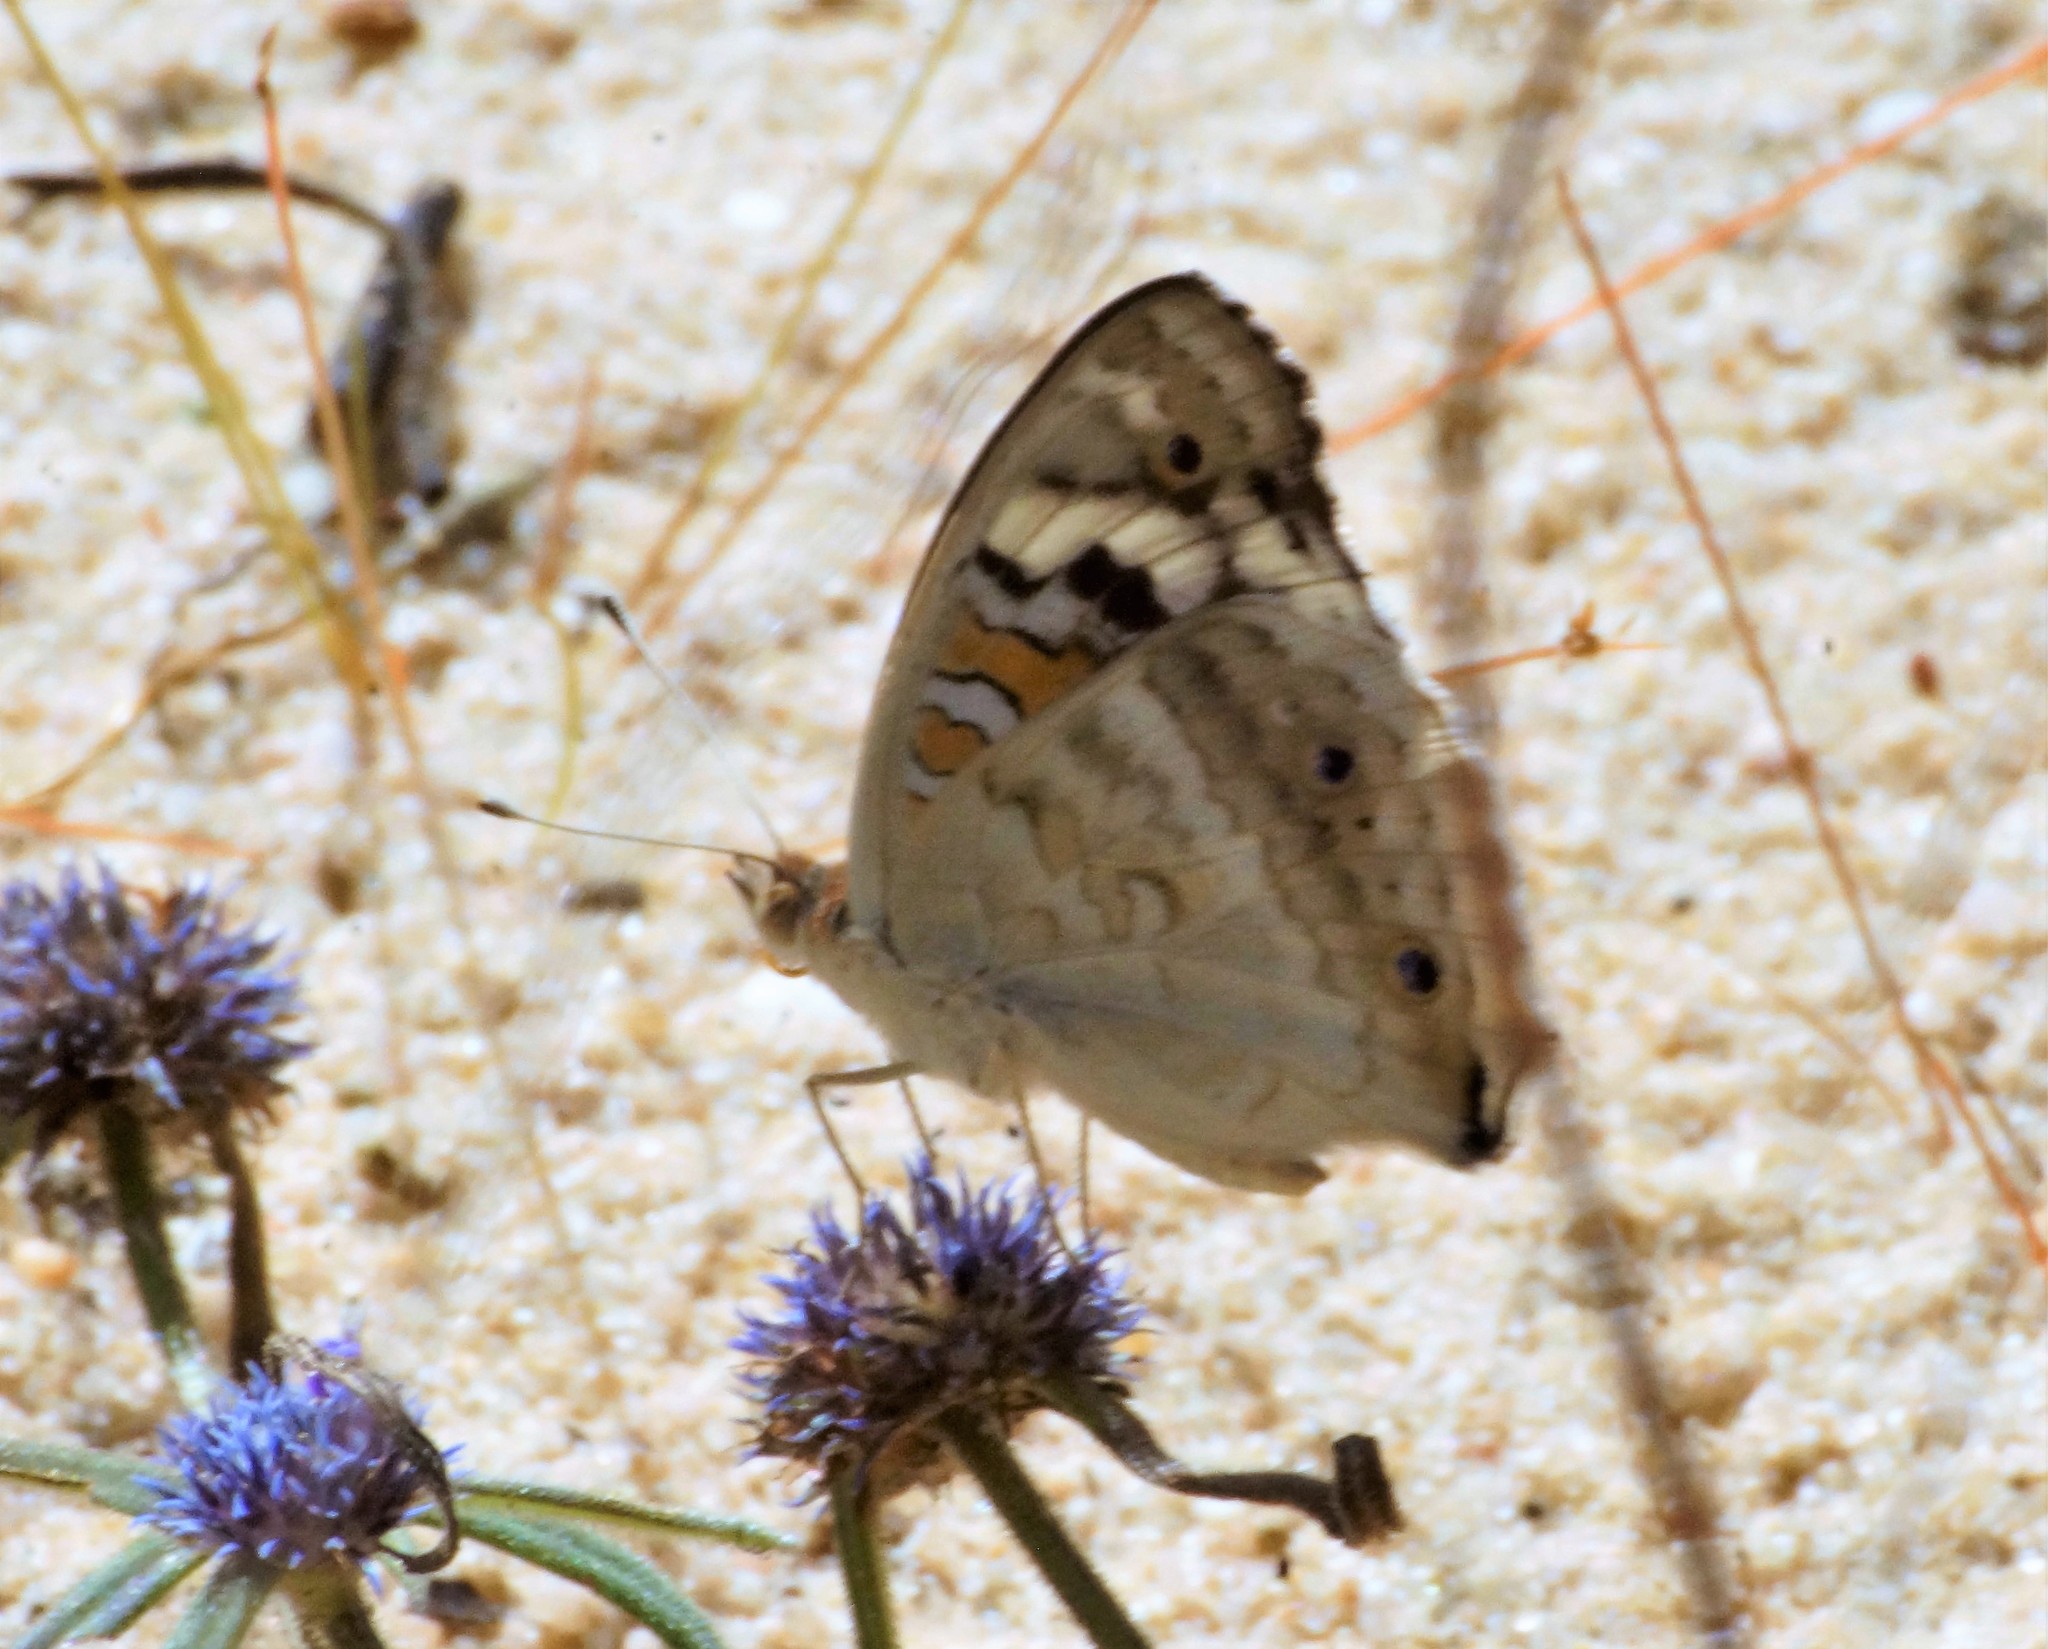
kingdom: Animalia
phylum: Arthropoda
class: Insecta
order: Lepidoptera
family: Nymphalidae
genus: Junonia
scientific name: Junonia orithya
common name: Blue pansy
